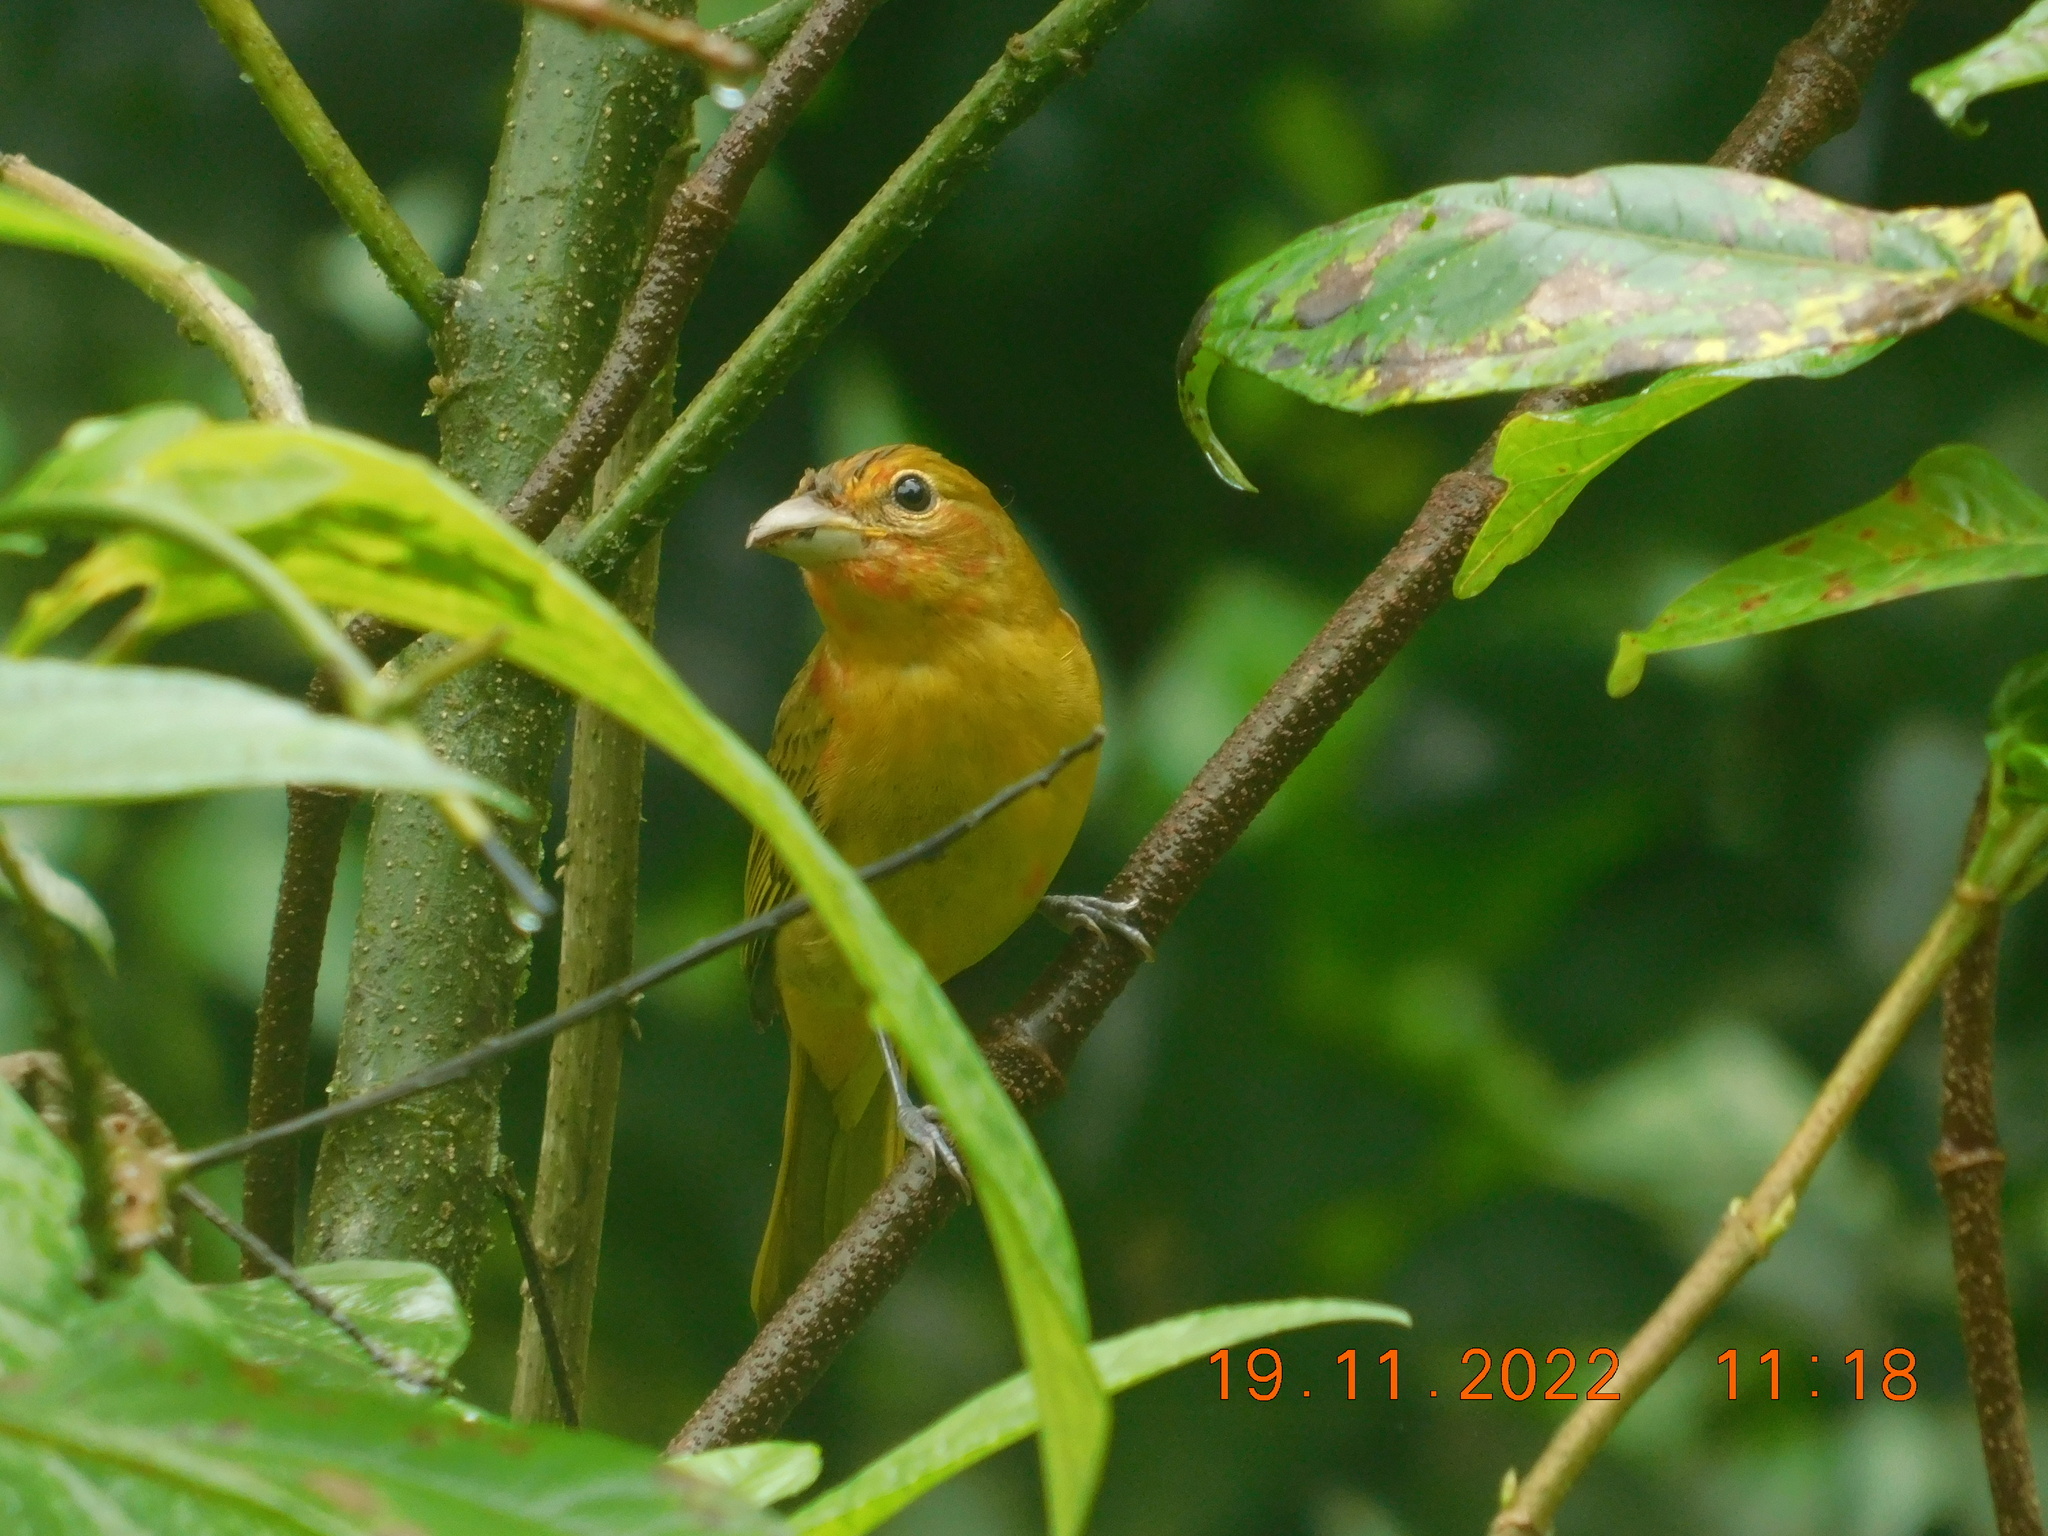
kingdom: Animalia
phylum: Chordata
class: Aves
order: Passeriformes
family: Cardinalidae
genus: Piranga
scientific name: Piranga rubra
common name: Summer tanager
